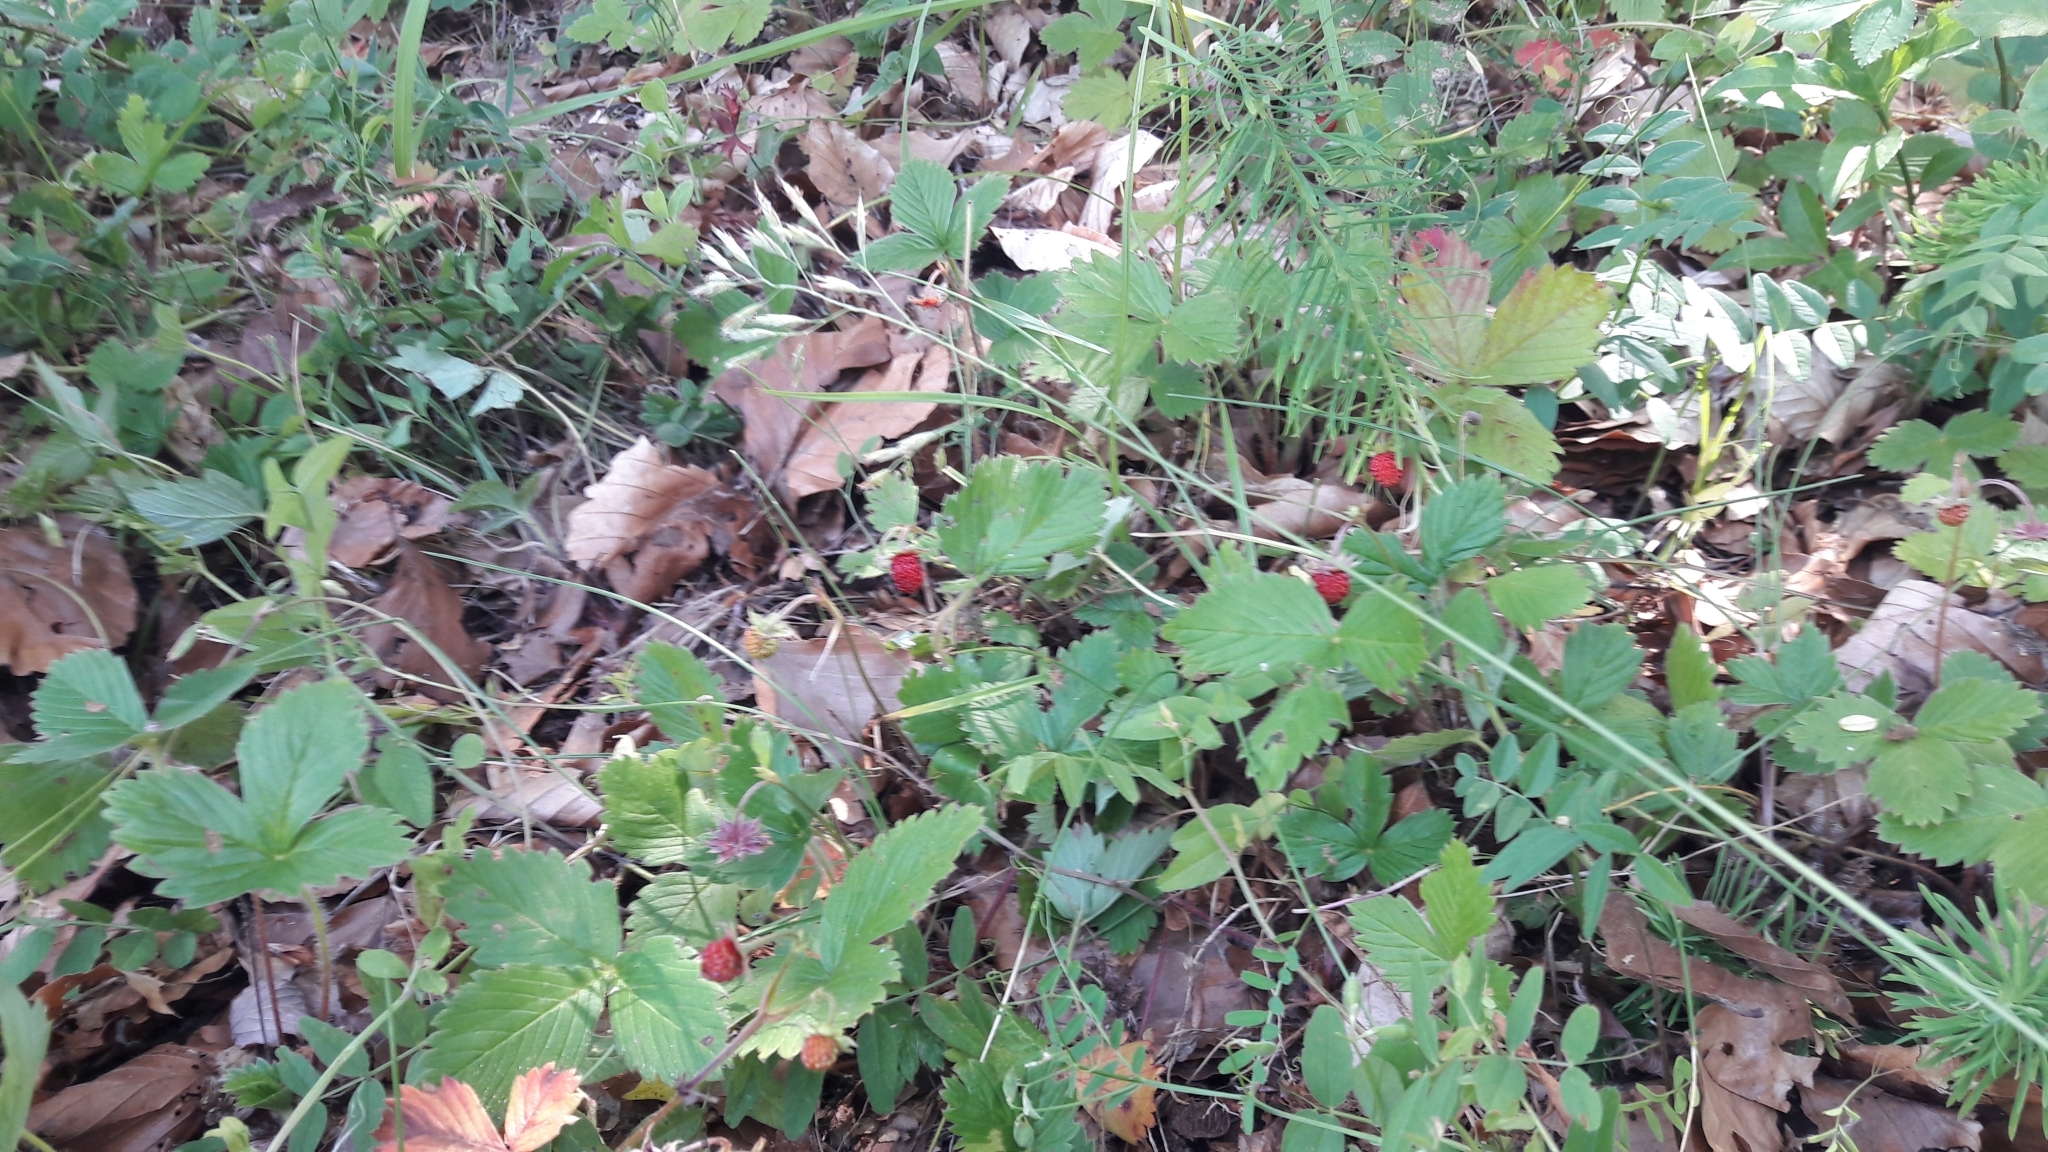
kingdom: Plantae
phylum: Tracheophyta
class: Magnoliopsida
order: Rosales
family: Rosaceae
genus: Fragaria
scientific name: Fragaria vesca
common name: Wild strawberry
